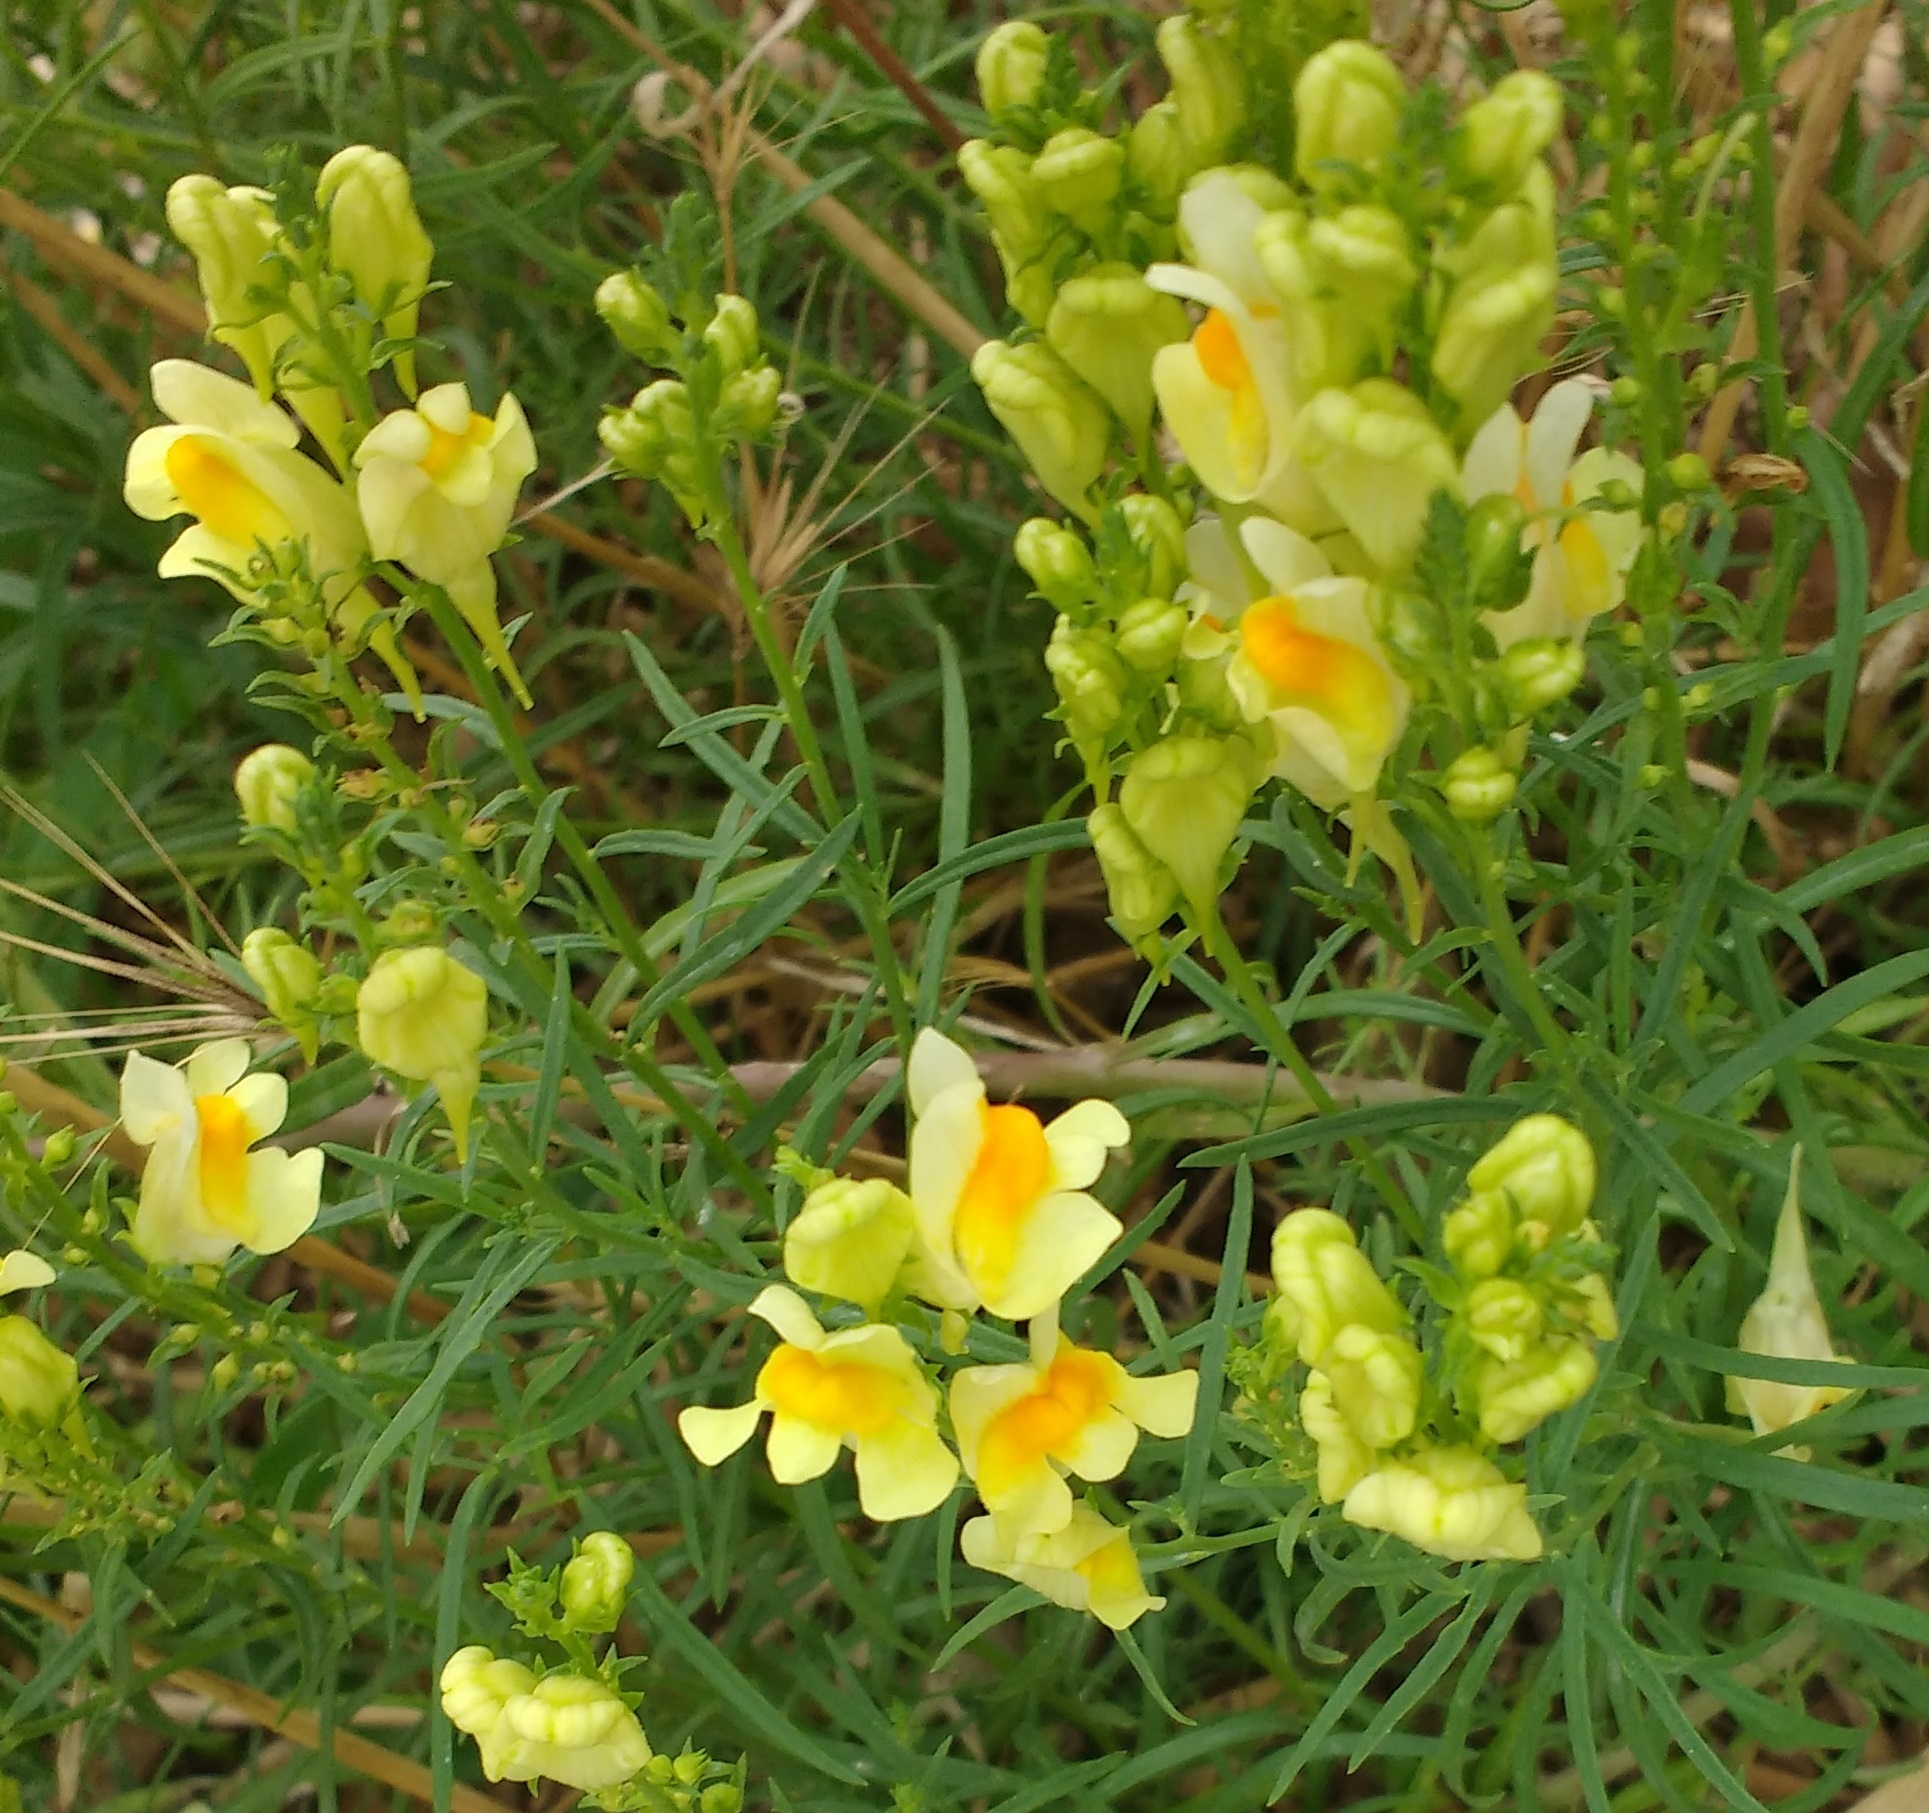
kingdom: Plantae
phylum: Tracheophyta
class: Magnoliopsida
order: Lamiales
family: Plantaginaceae
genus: Linaria
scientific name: Linaria vulgaris
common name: Butter and eggs
